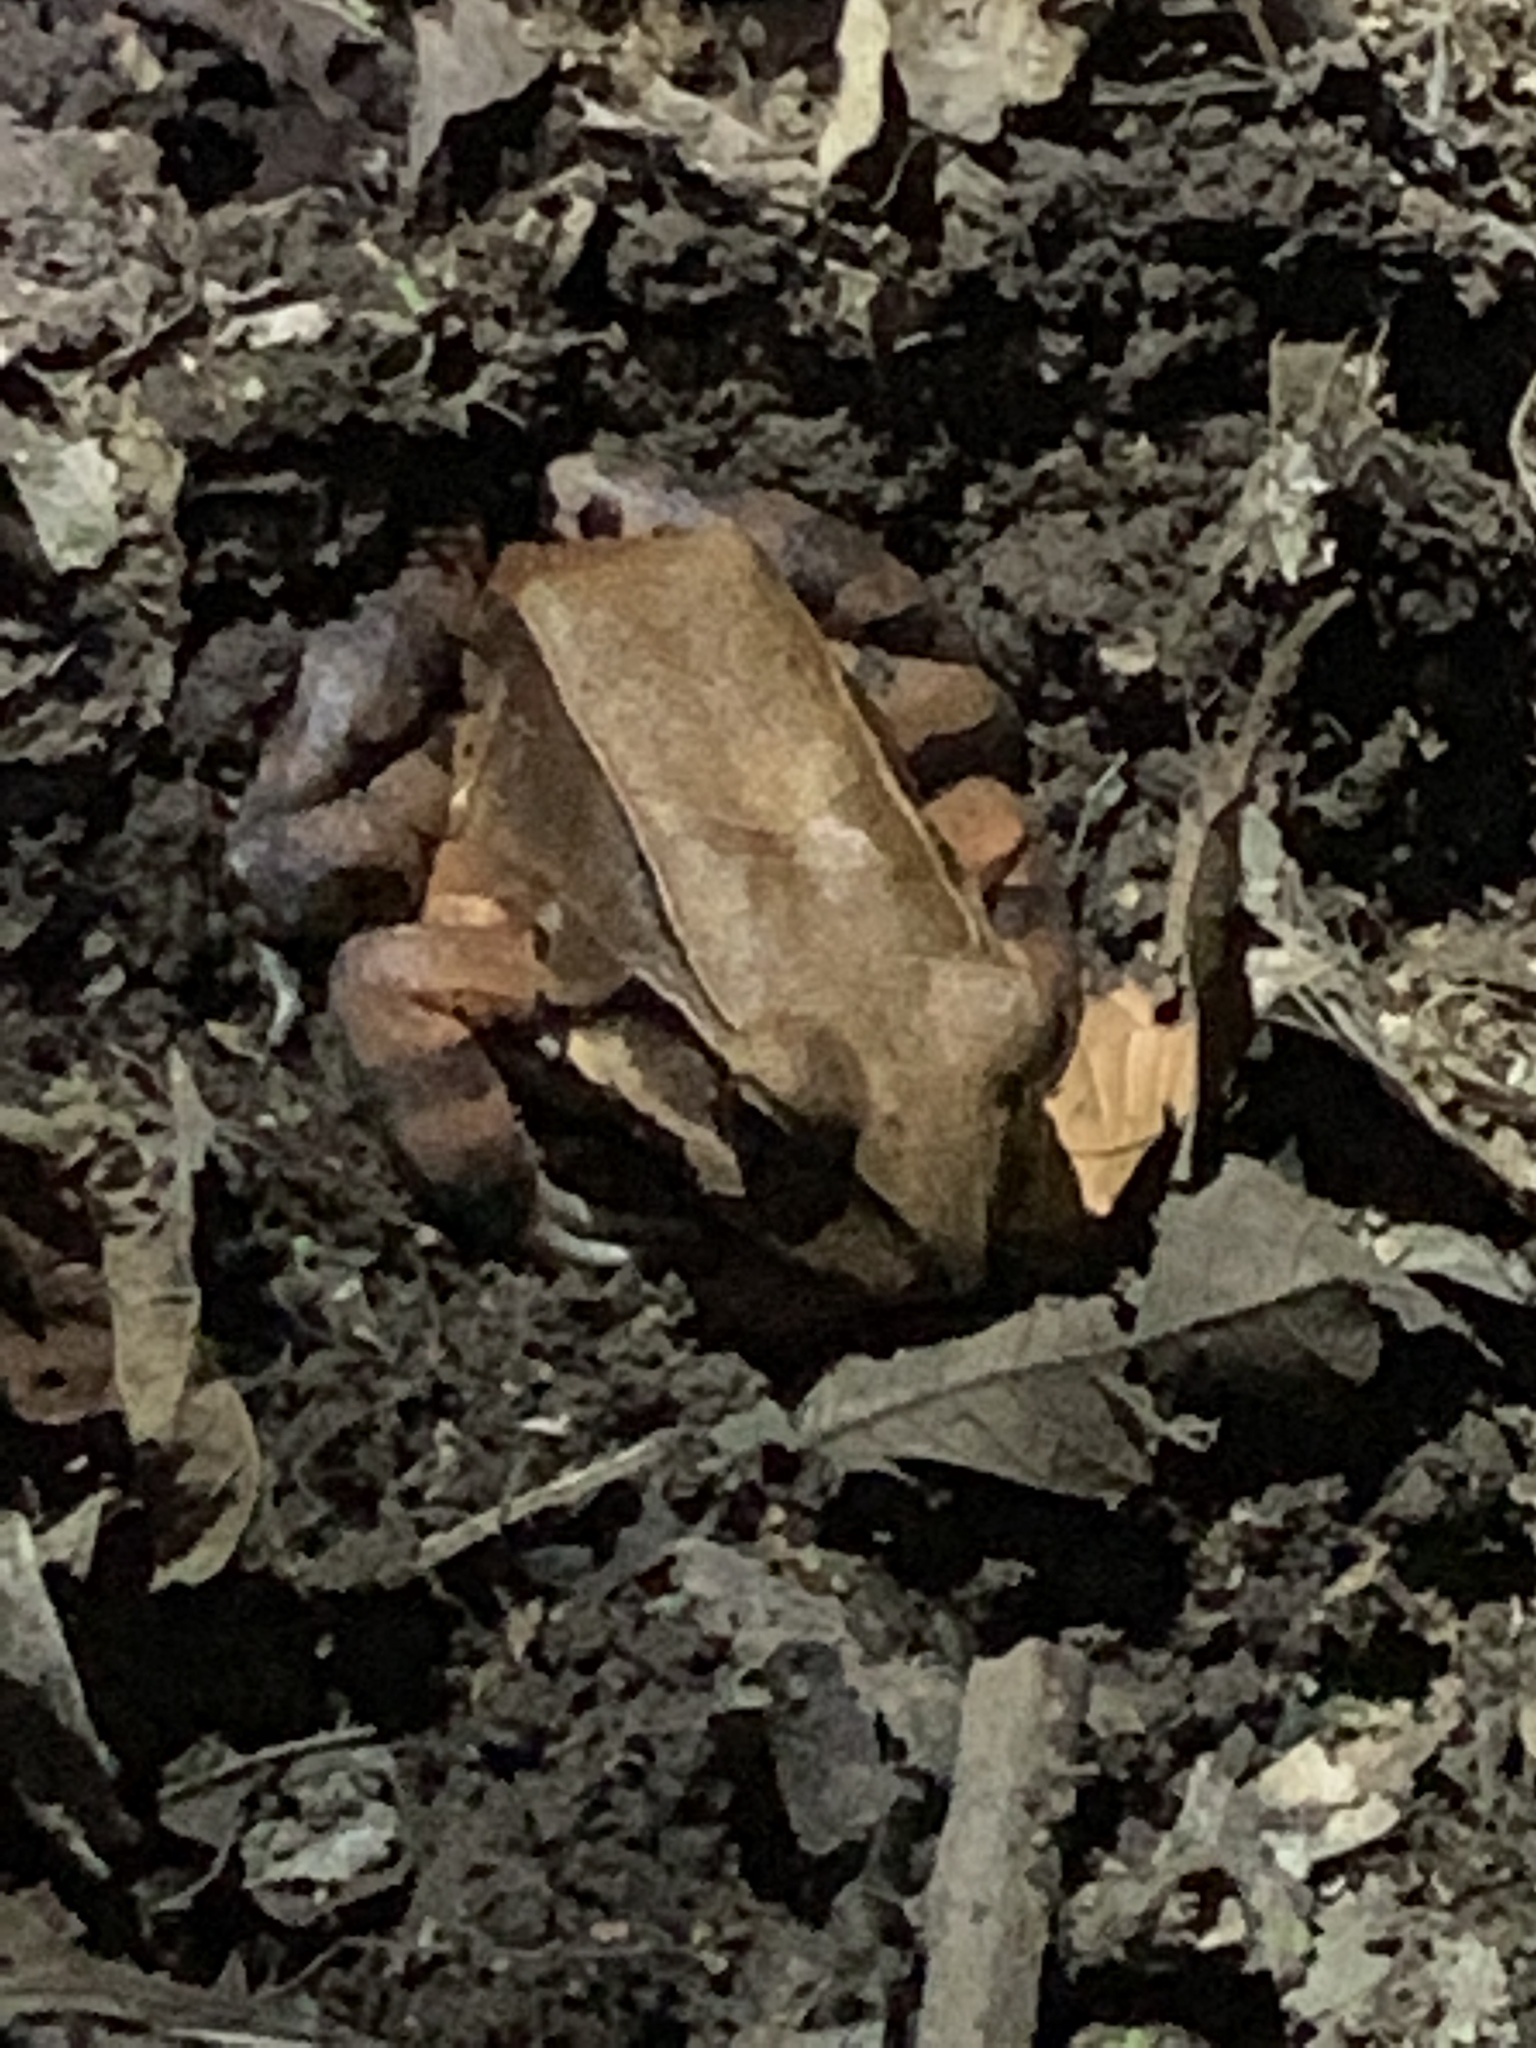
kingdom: Animalia
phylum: Chordata
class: Amphibia
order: Anura
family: Leptodactylidae
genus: Leptodactylus
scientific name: Leptodactylus savagei
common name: Savage's thin-toed frog
